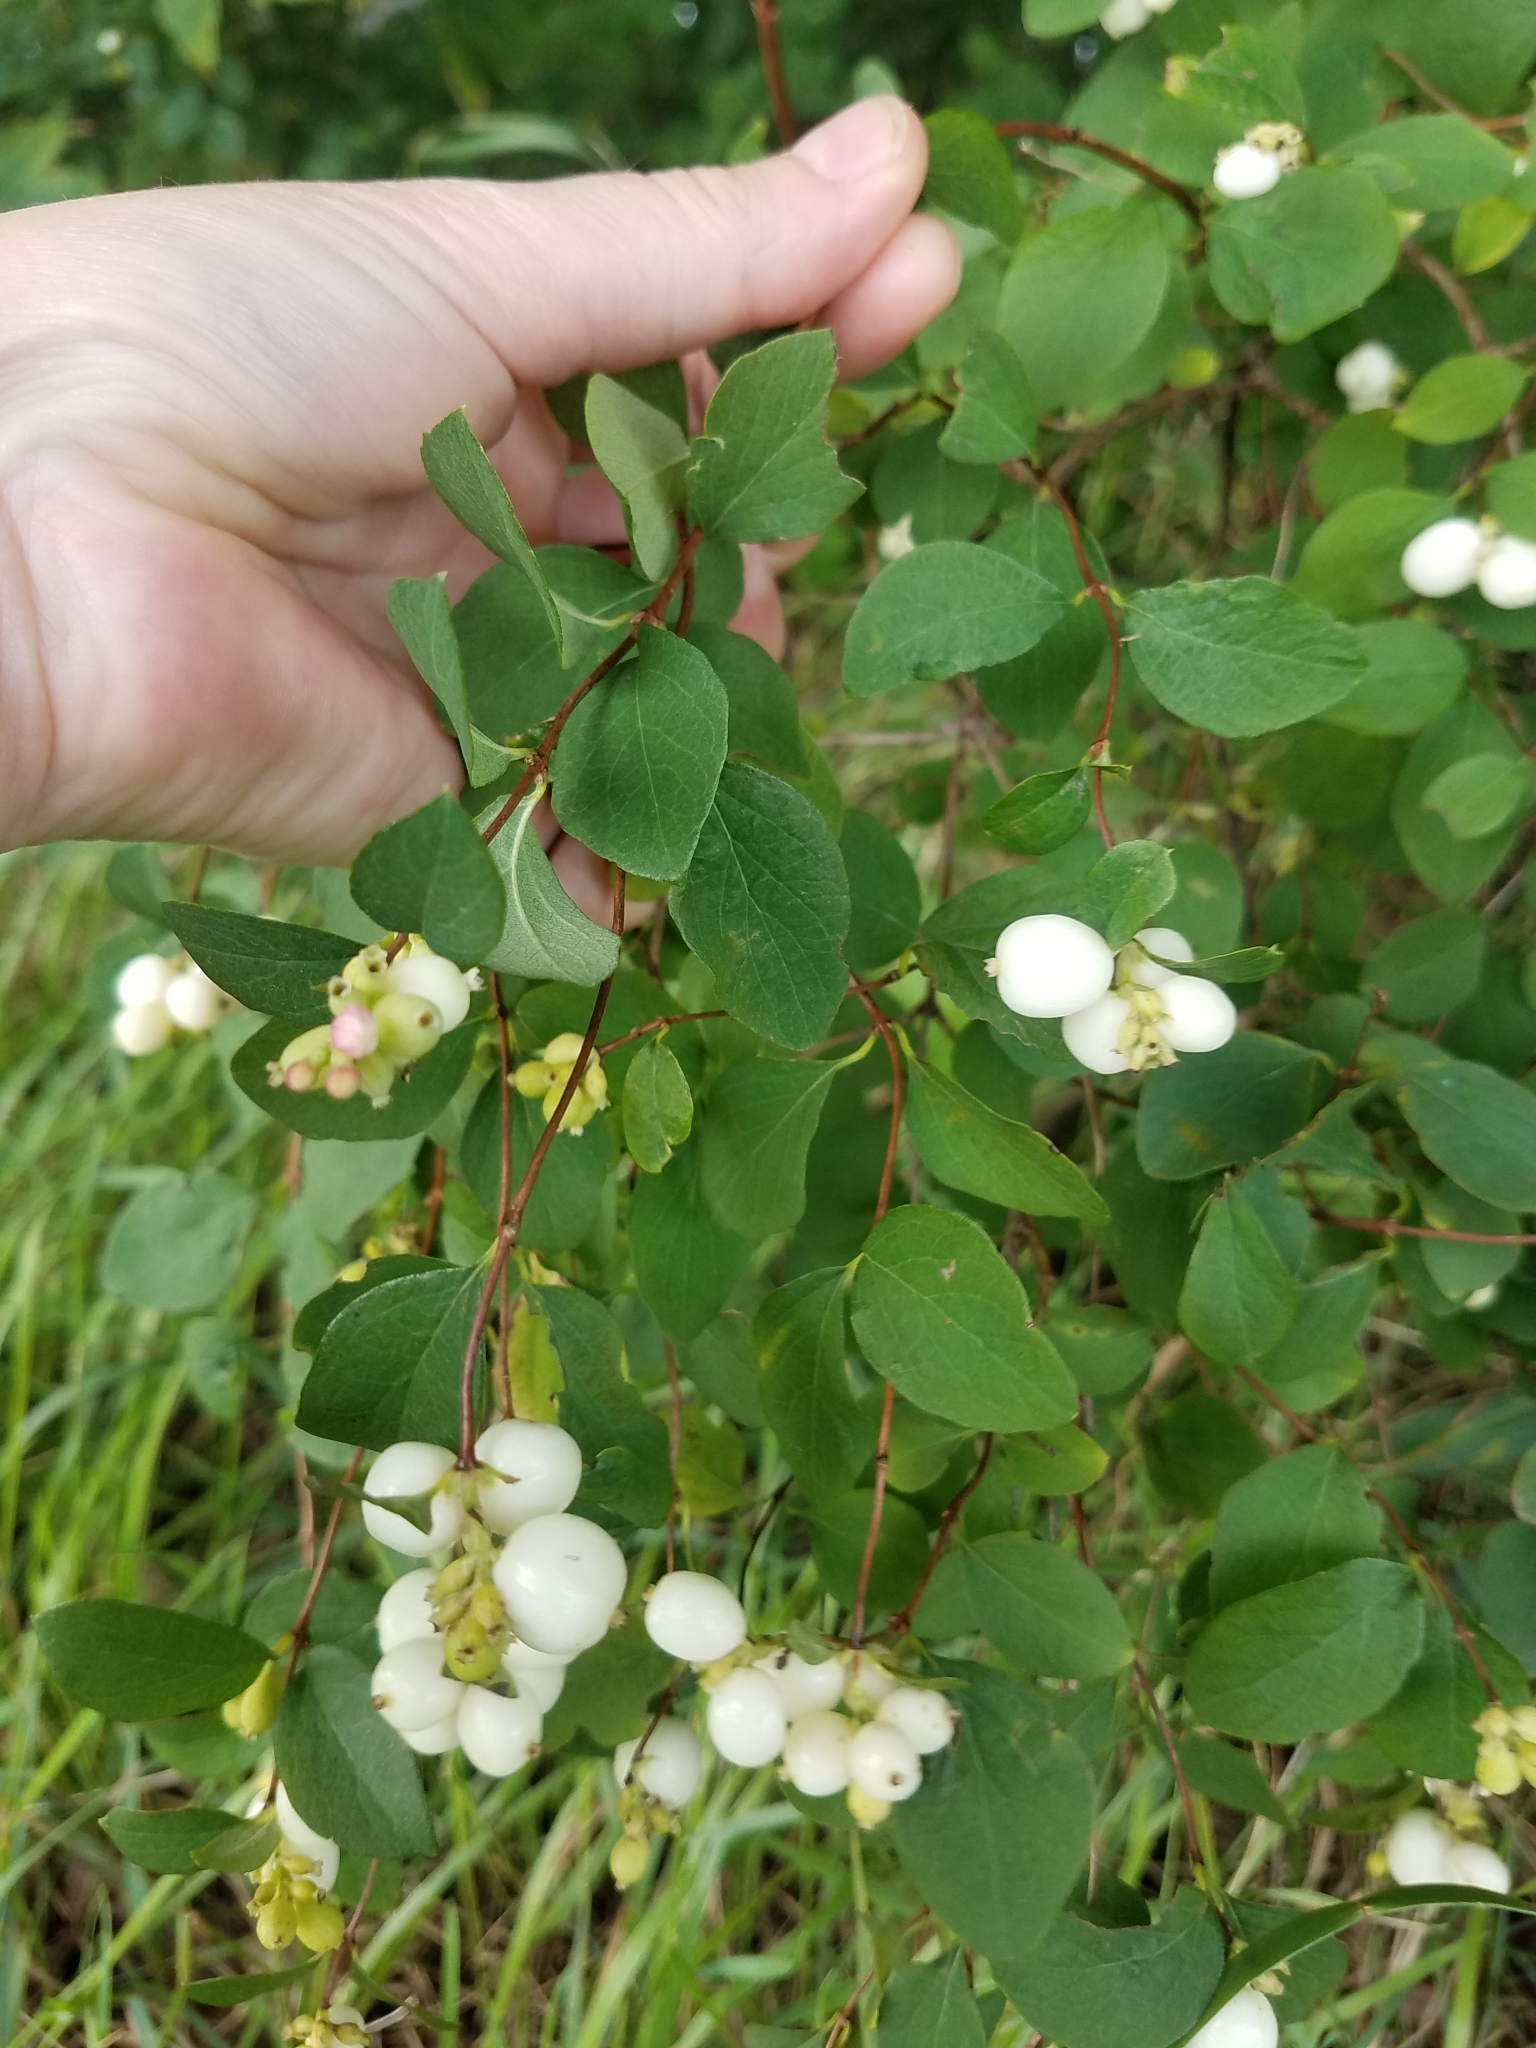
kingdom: Plantae
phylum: Tracheophyta
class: Magnoliopsida
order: Dipsacales
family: Caprifoliaceae
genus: Symphoricarpos
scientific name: Symphoricarpos albus
